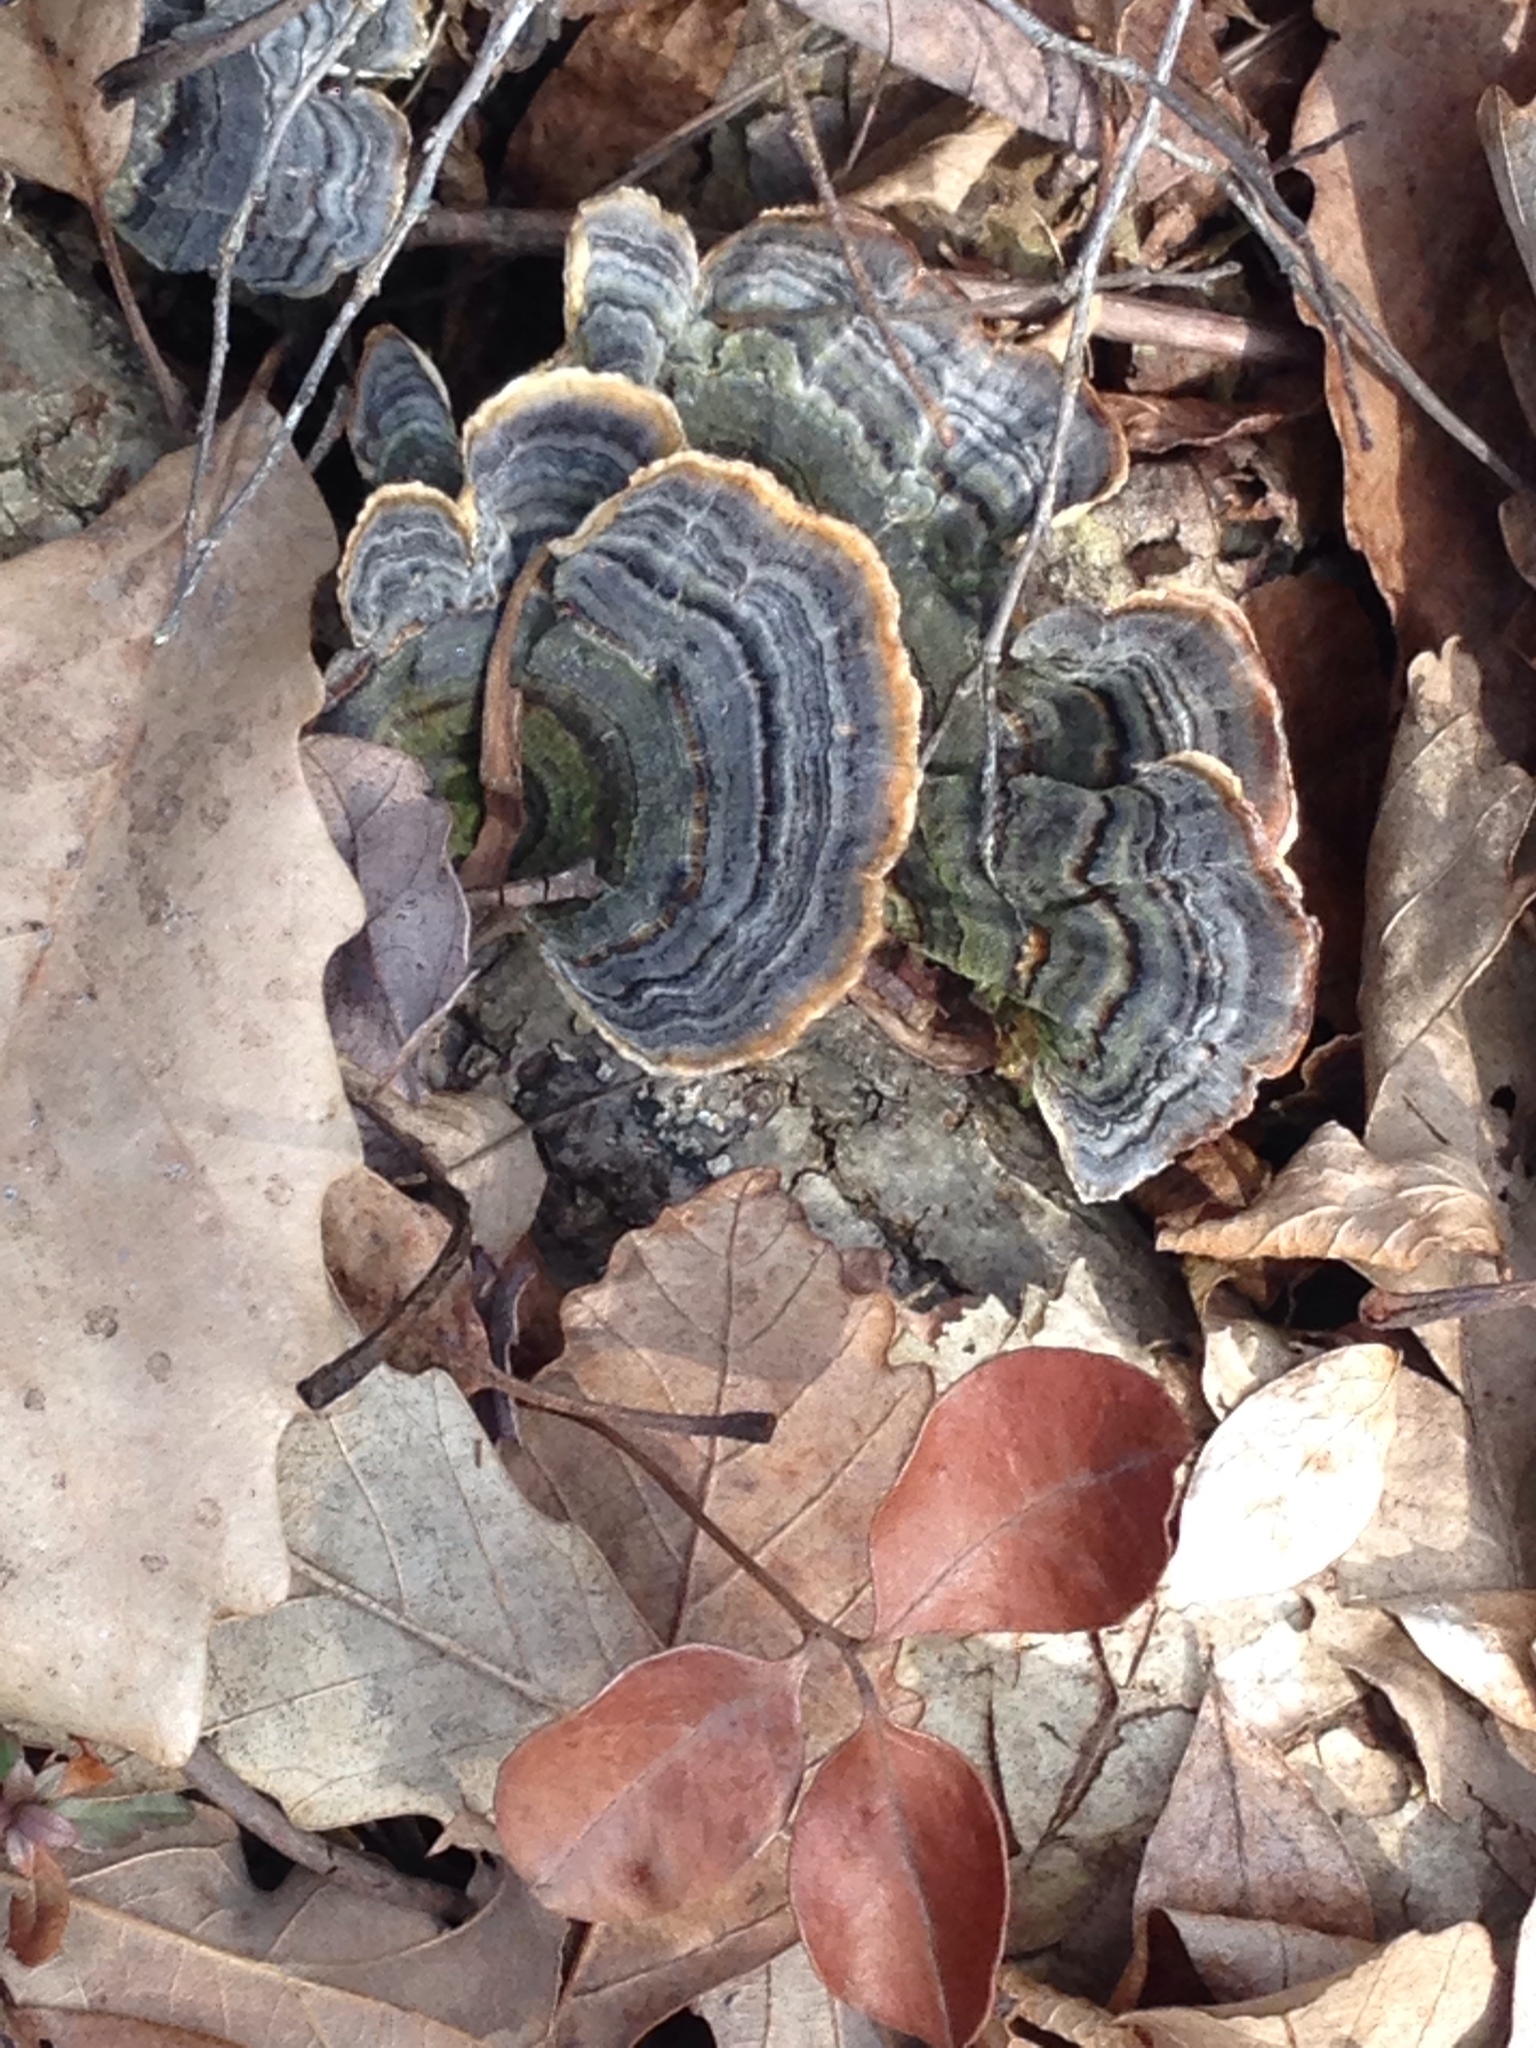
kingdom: Fungi
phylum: Basidiomycota
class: Agaricomycetes
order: Polyporales
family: Polyporaceae
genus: Trametes
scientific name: Trametes versicolor
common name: Turkeytail
